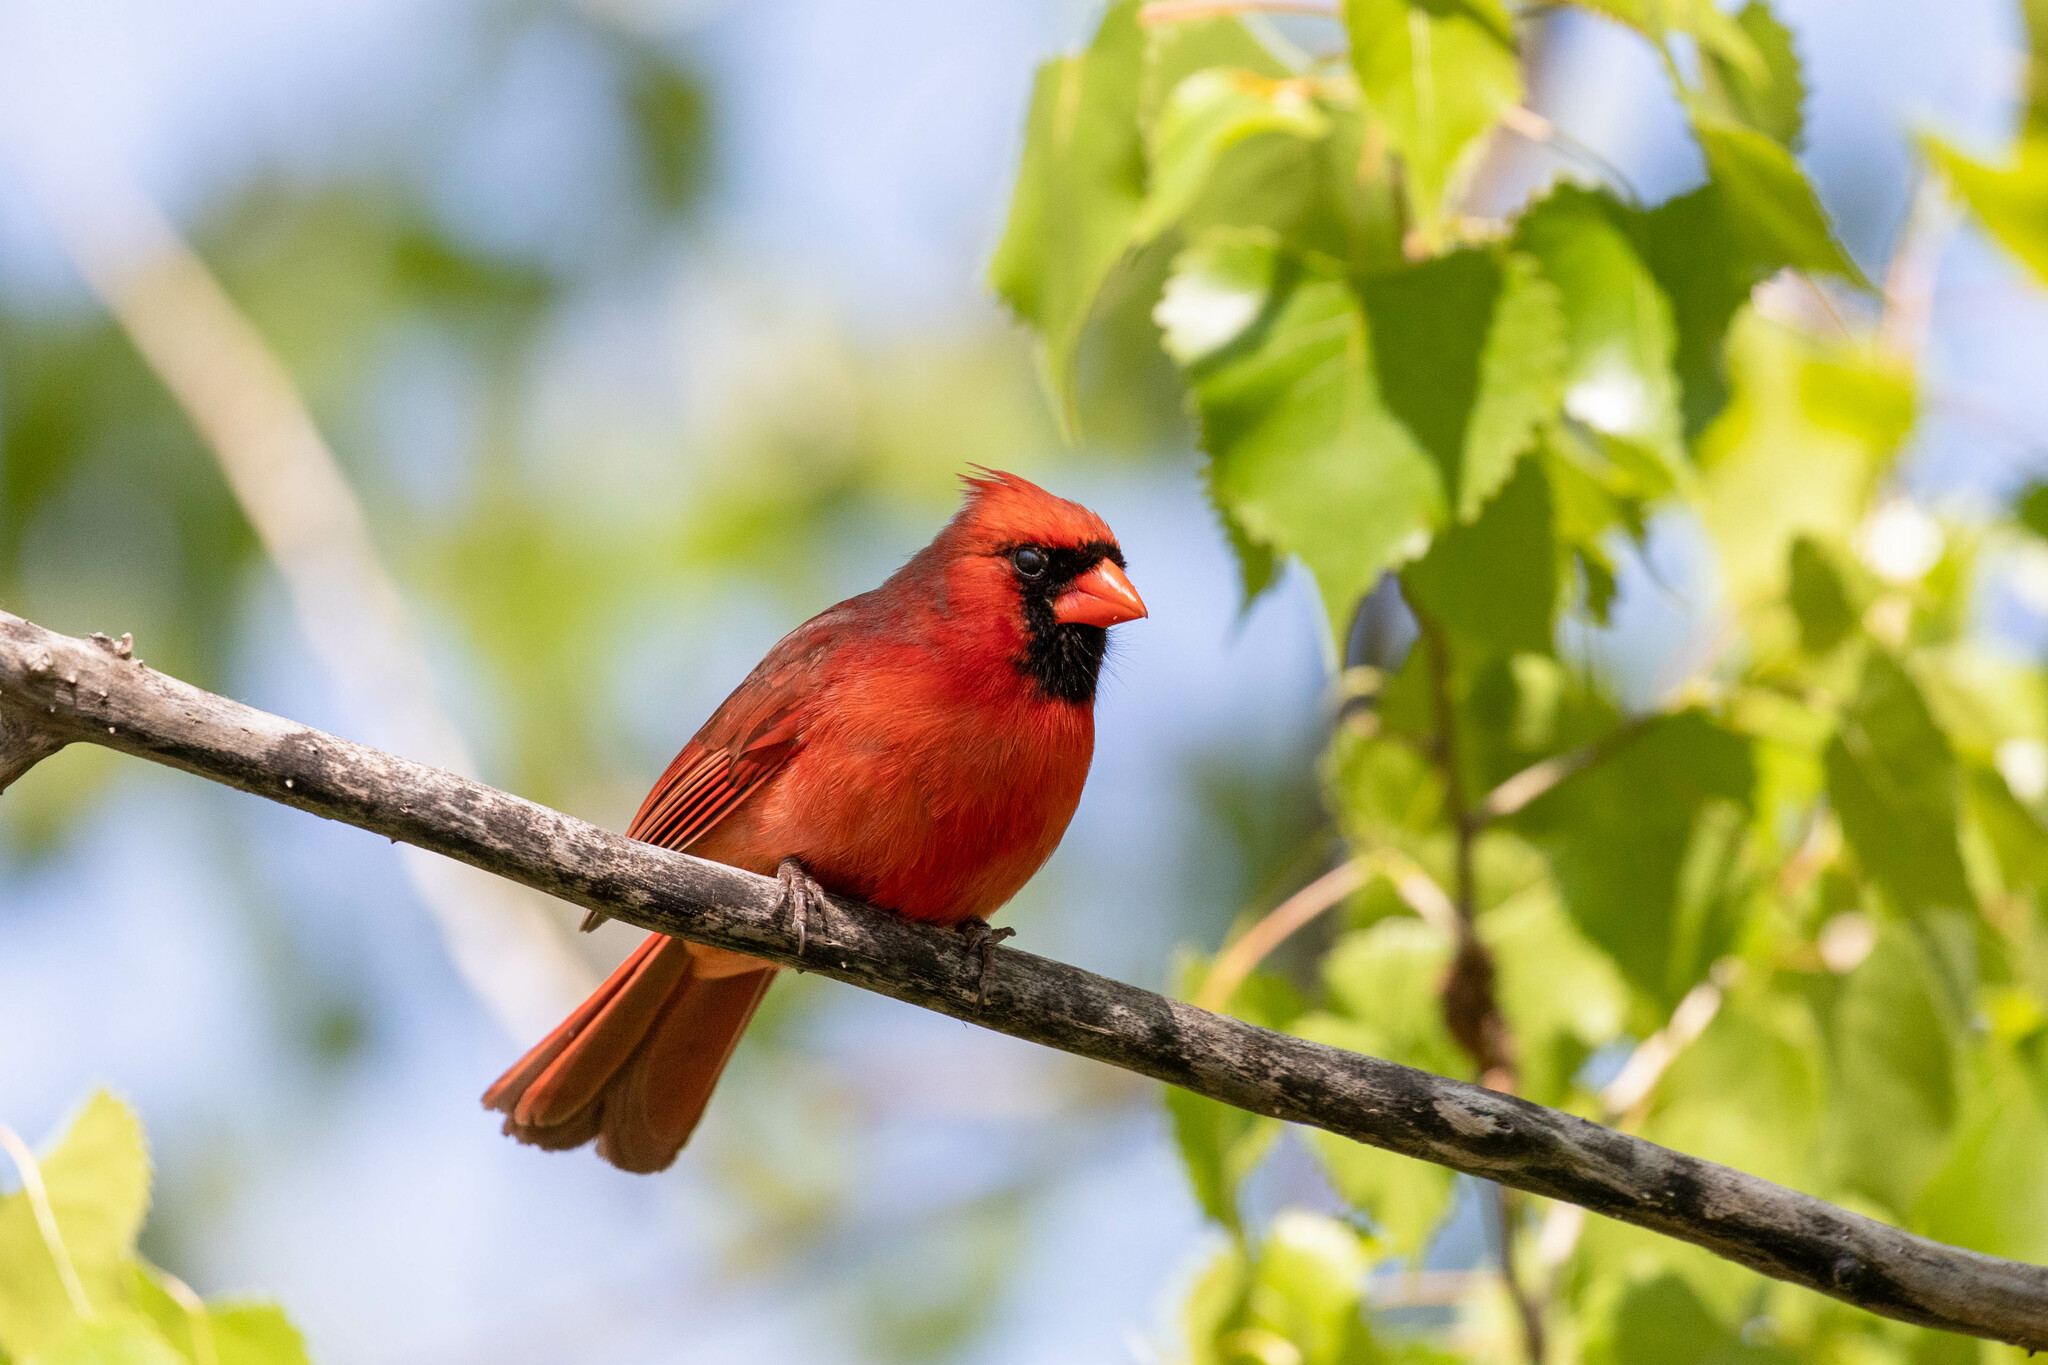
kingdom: Animalia
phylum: Chordata
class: Aves
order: Passeriformes
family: Cardinalidae
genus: Cardinalis
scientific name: Cardinalis cardinalis
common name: Northern cardinal
